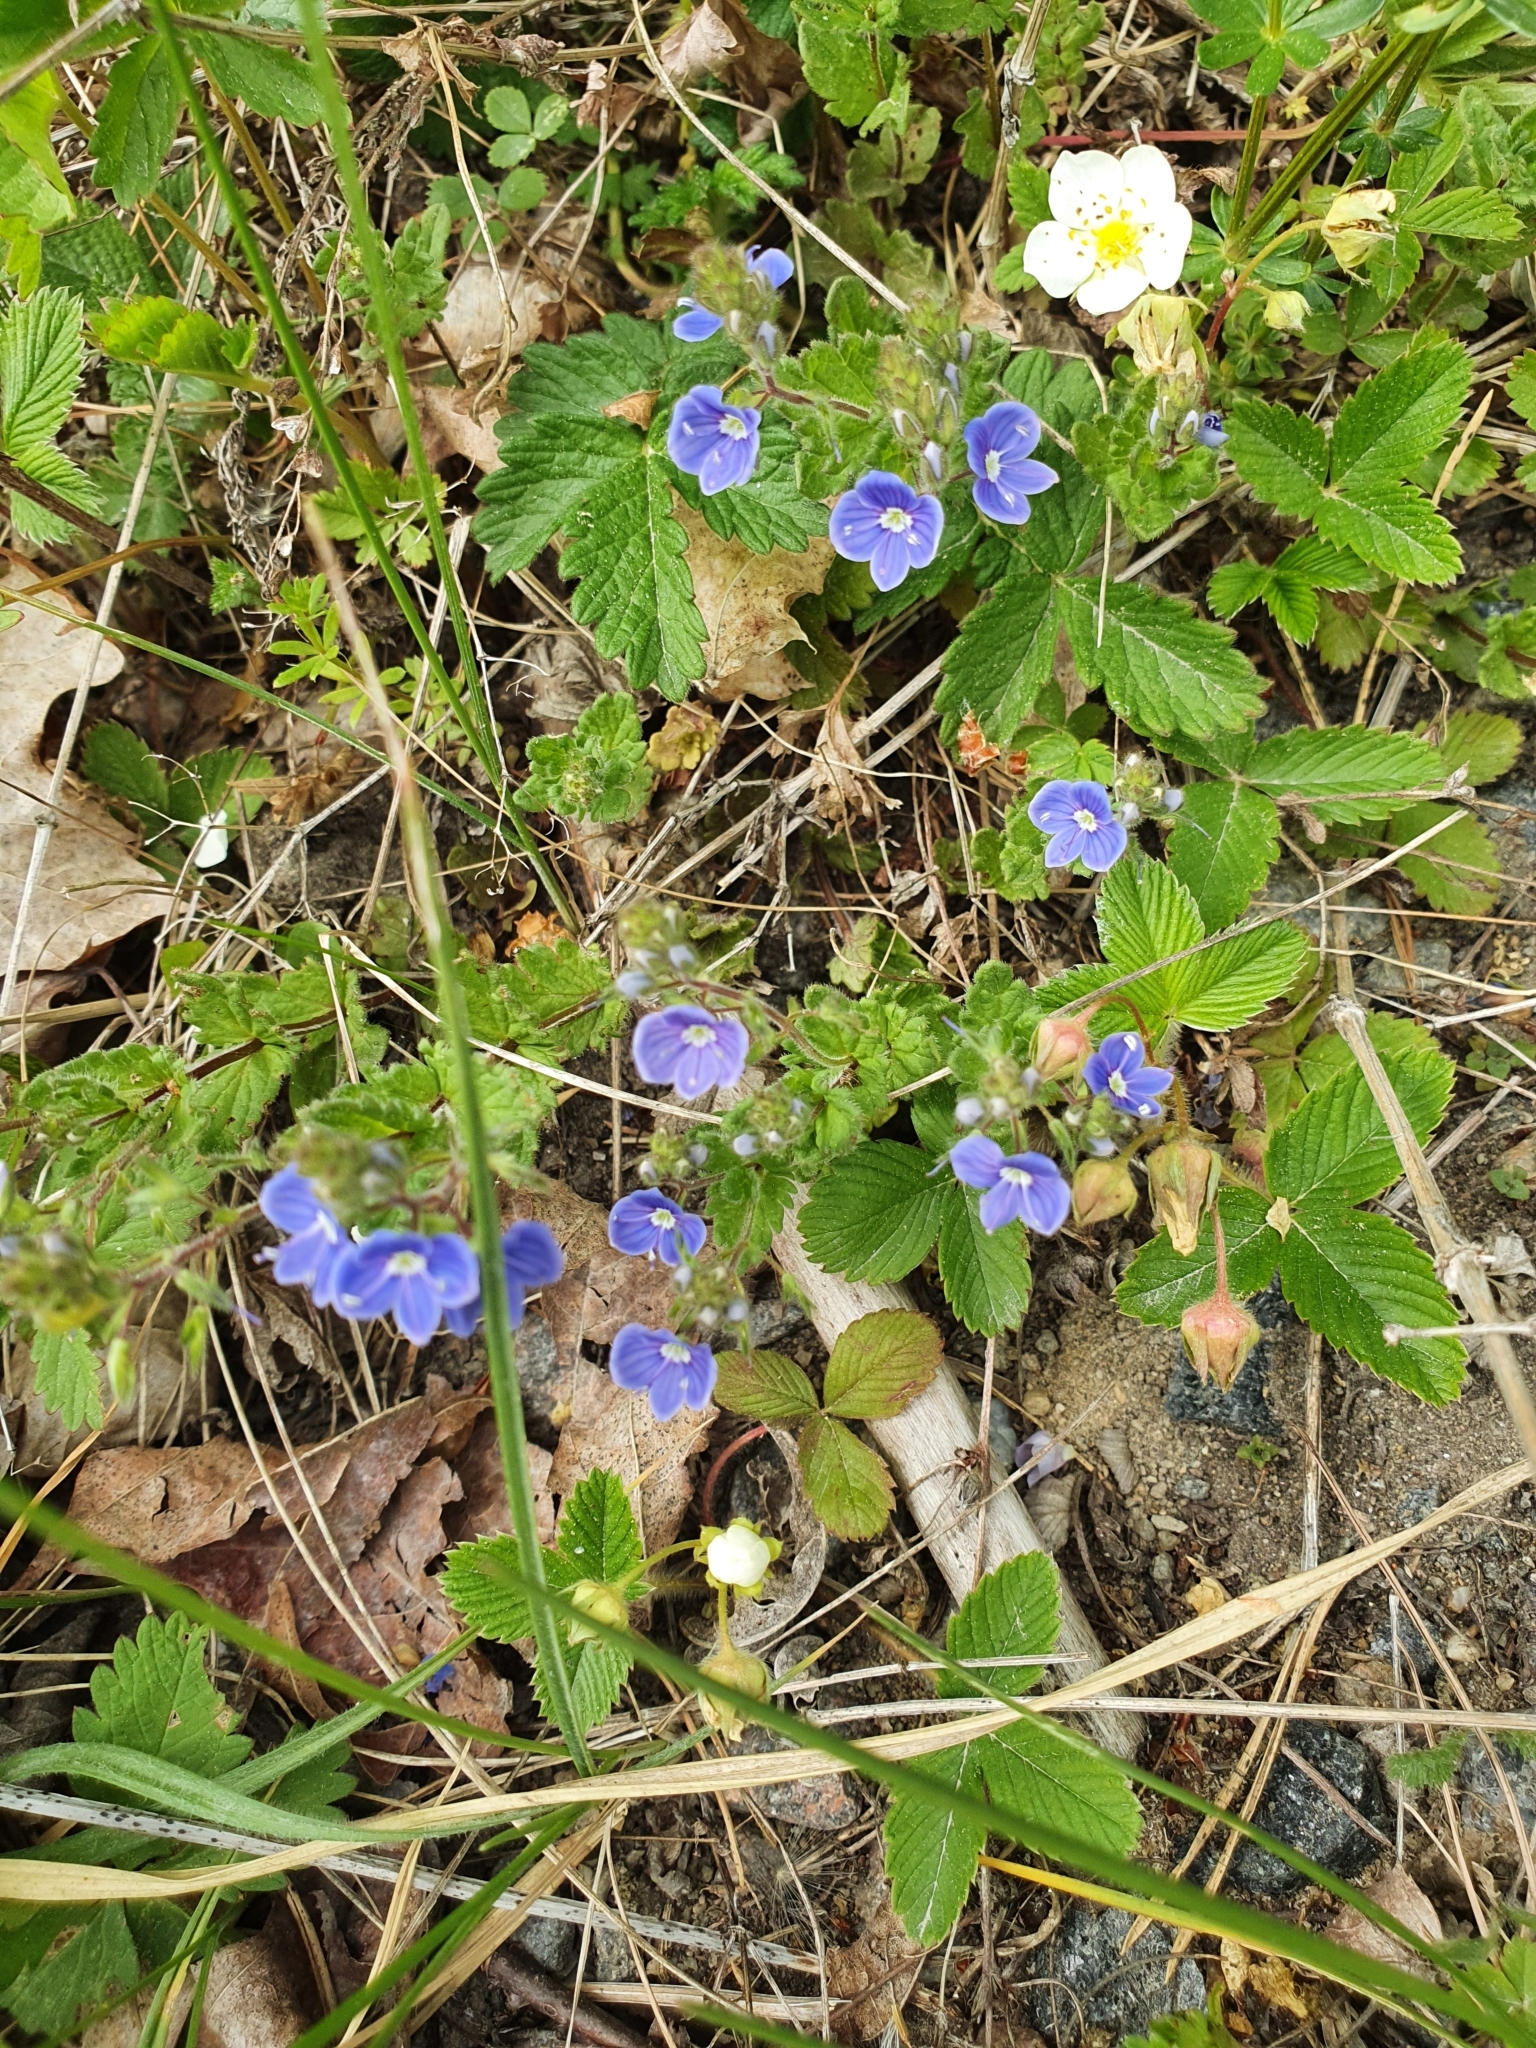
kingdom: Plantae
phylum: Tracheophyta
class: Magnoliopsida
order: Lamiales
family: Plantaginaceae
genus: Veronica
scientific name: Veronica chamaedrys
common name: Germander speedwell
